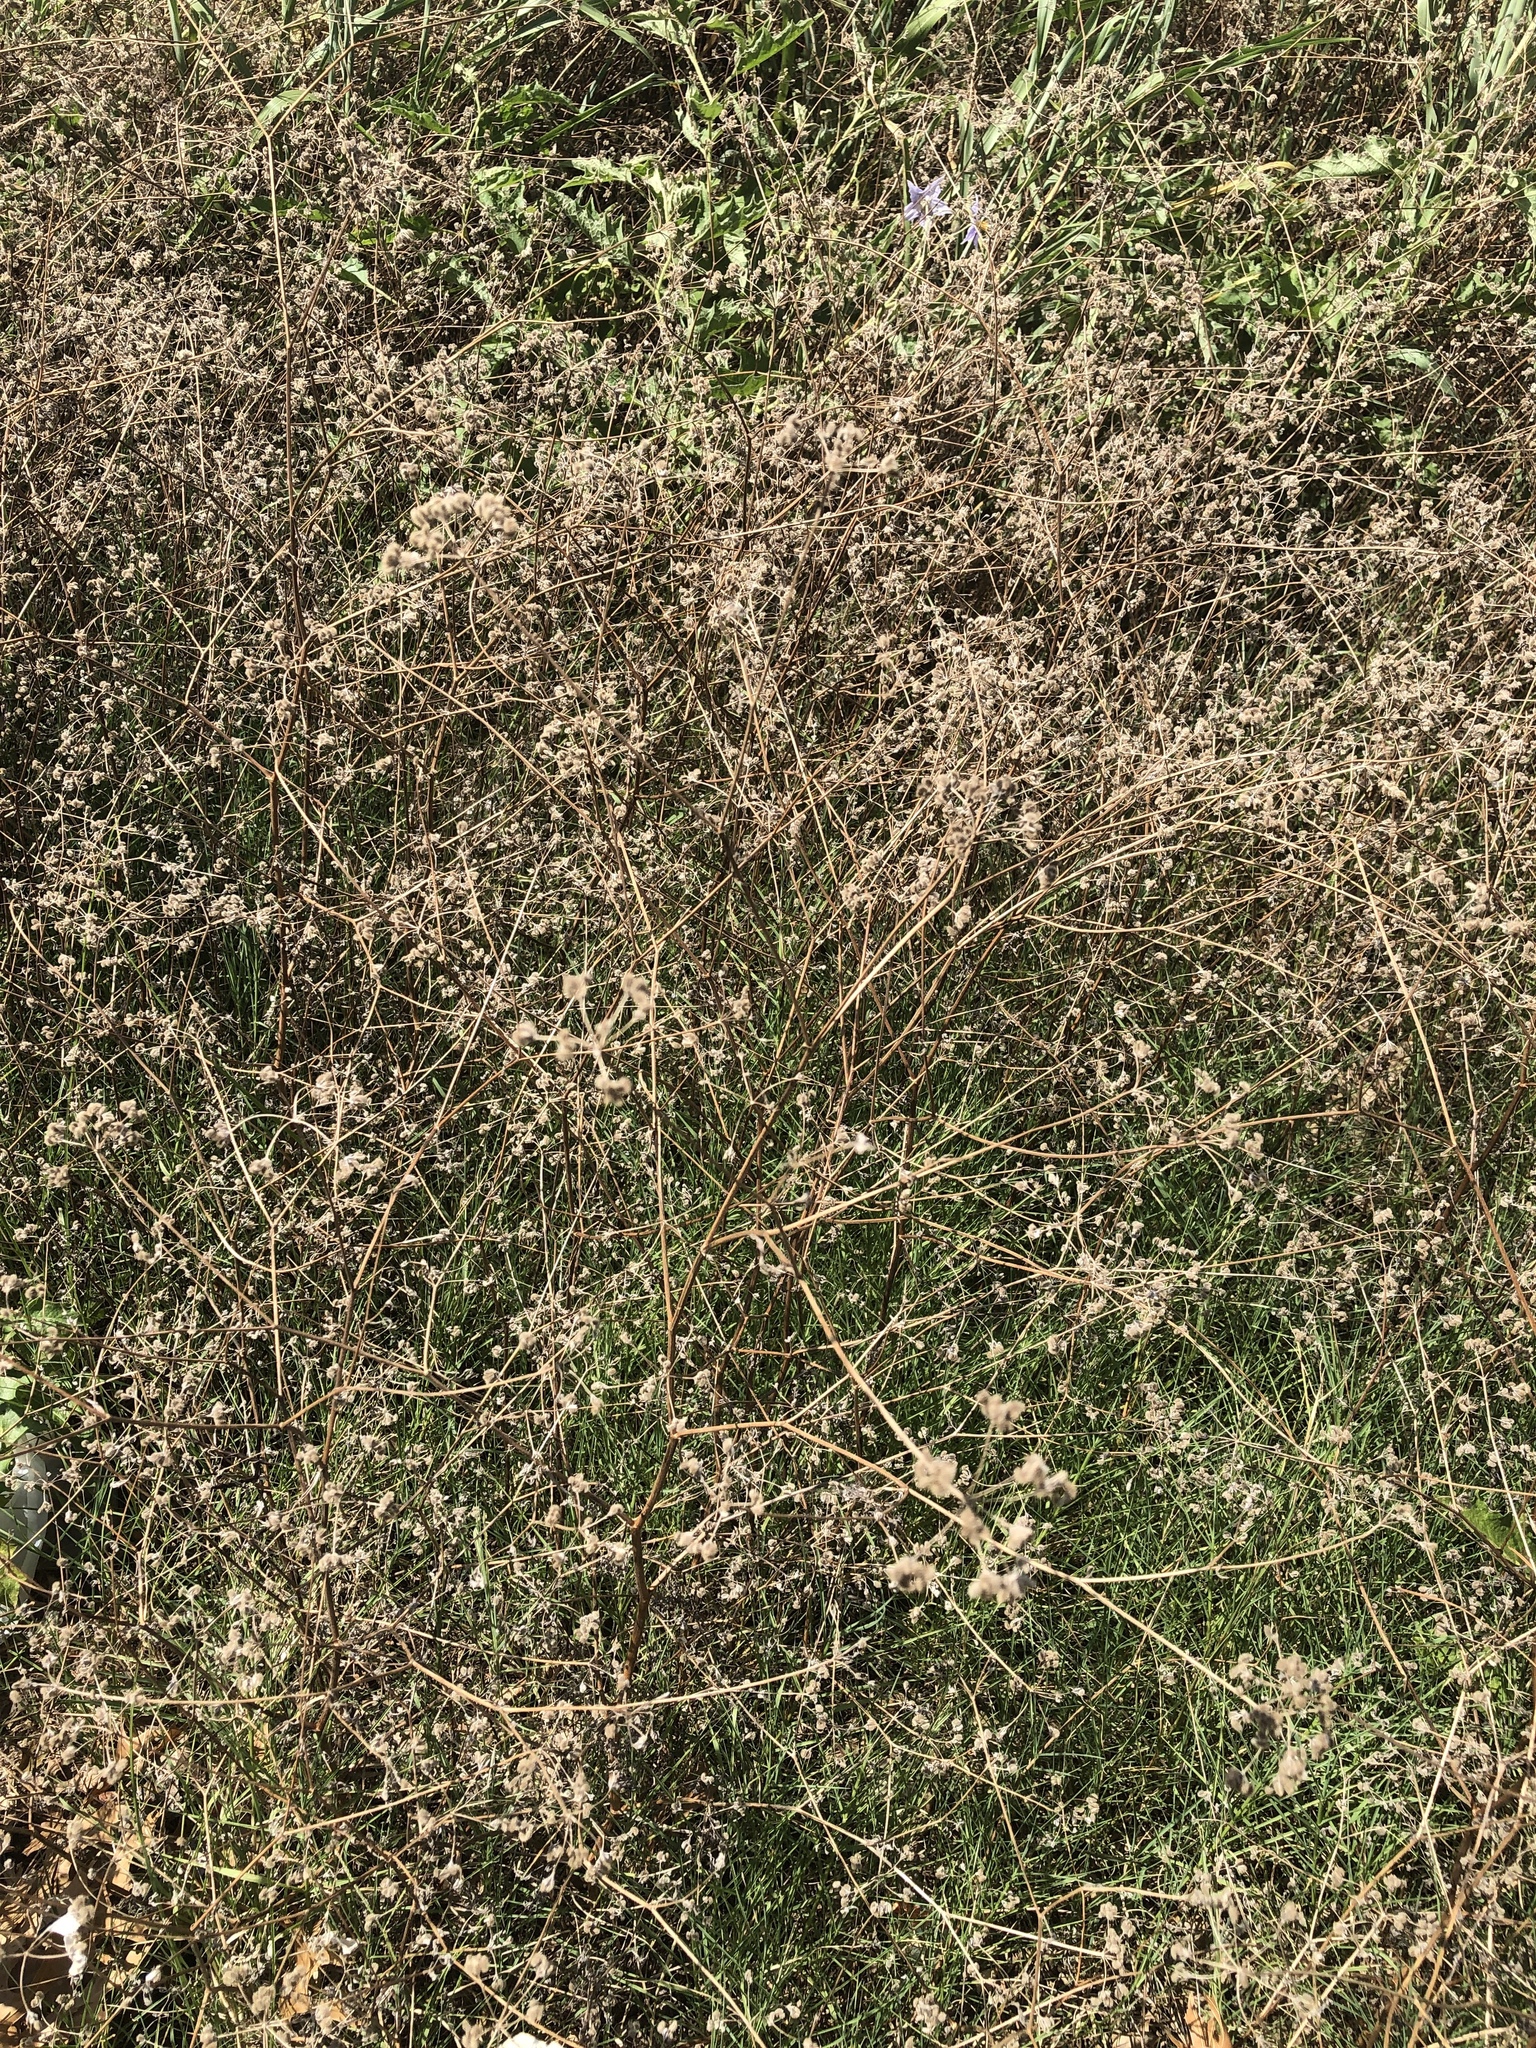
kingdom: Plantae
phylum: Tracheophyta
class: Magnoliopsida
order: Apiales
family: Apiaceae
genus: Torilis
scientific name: Torilis arvensis
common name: Spreading hedge-parsley
